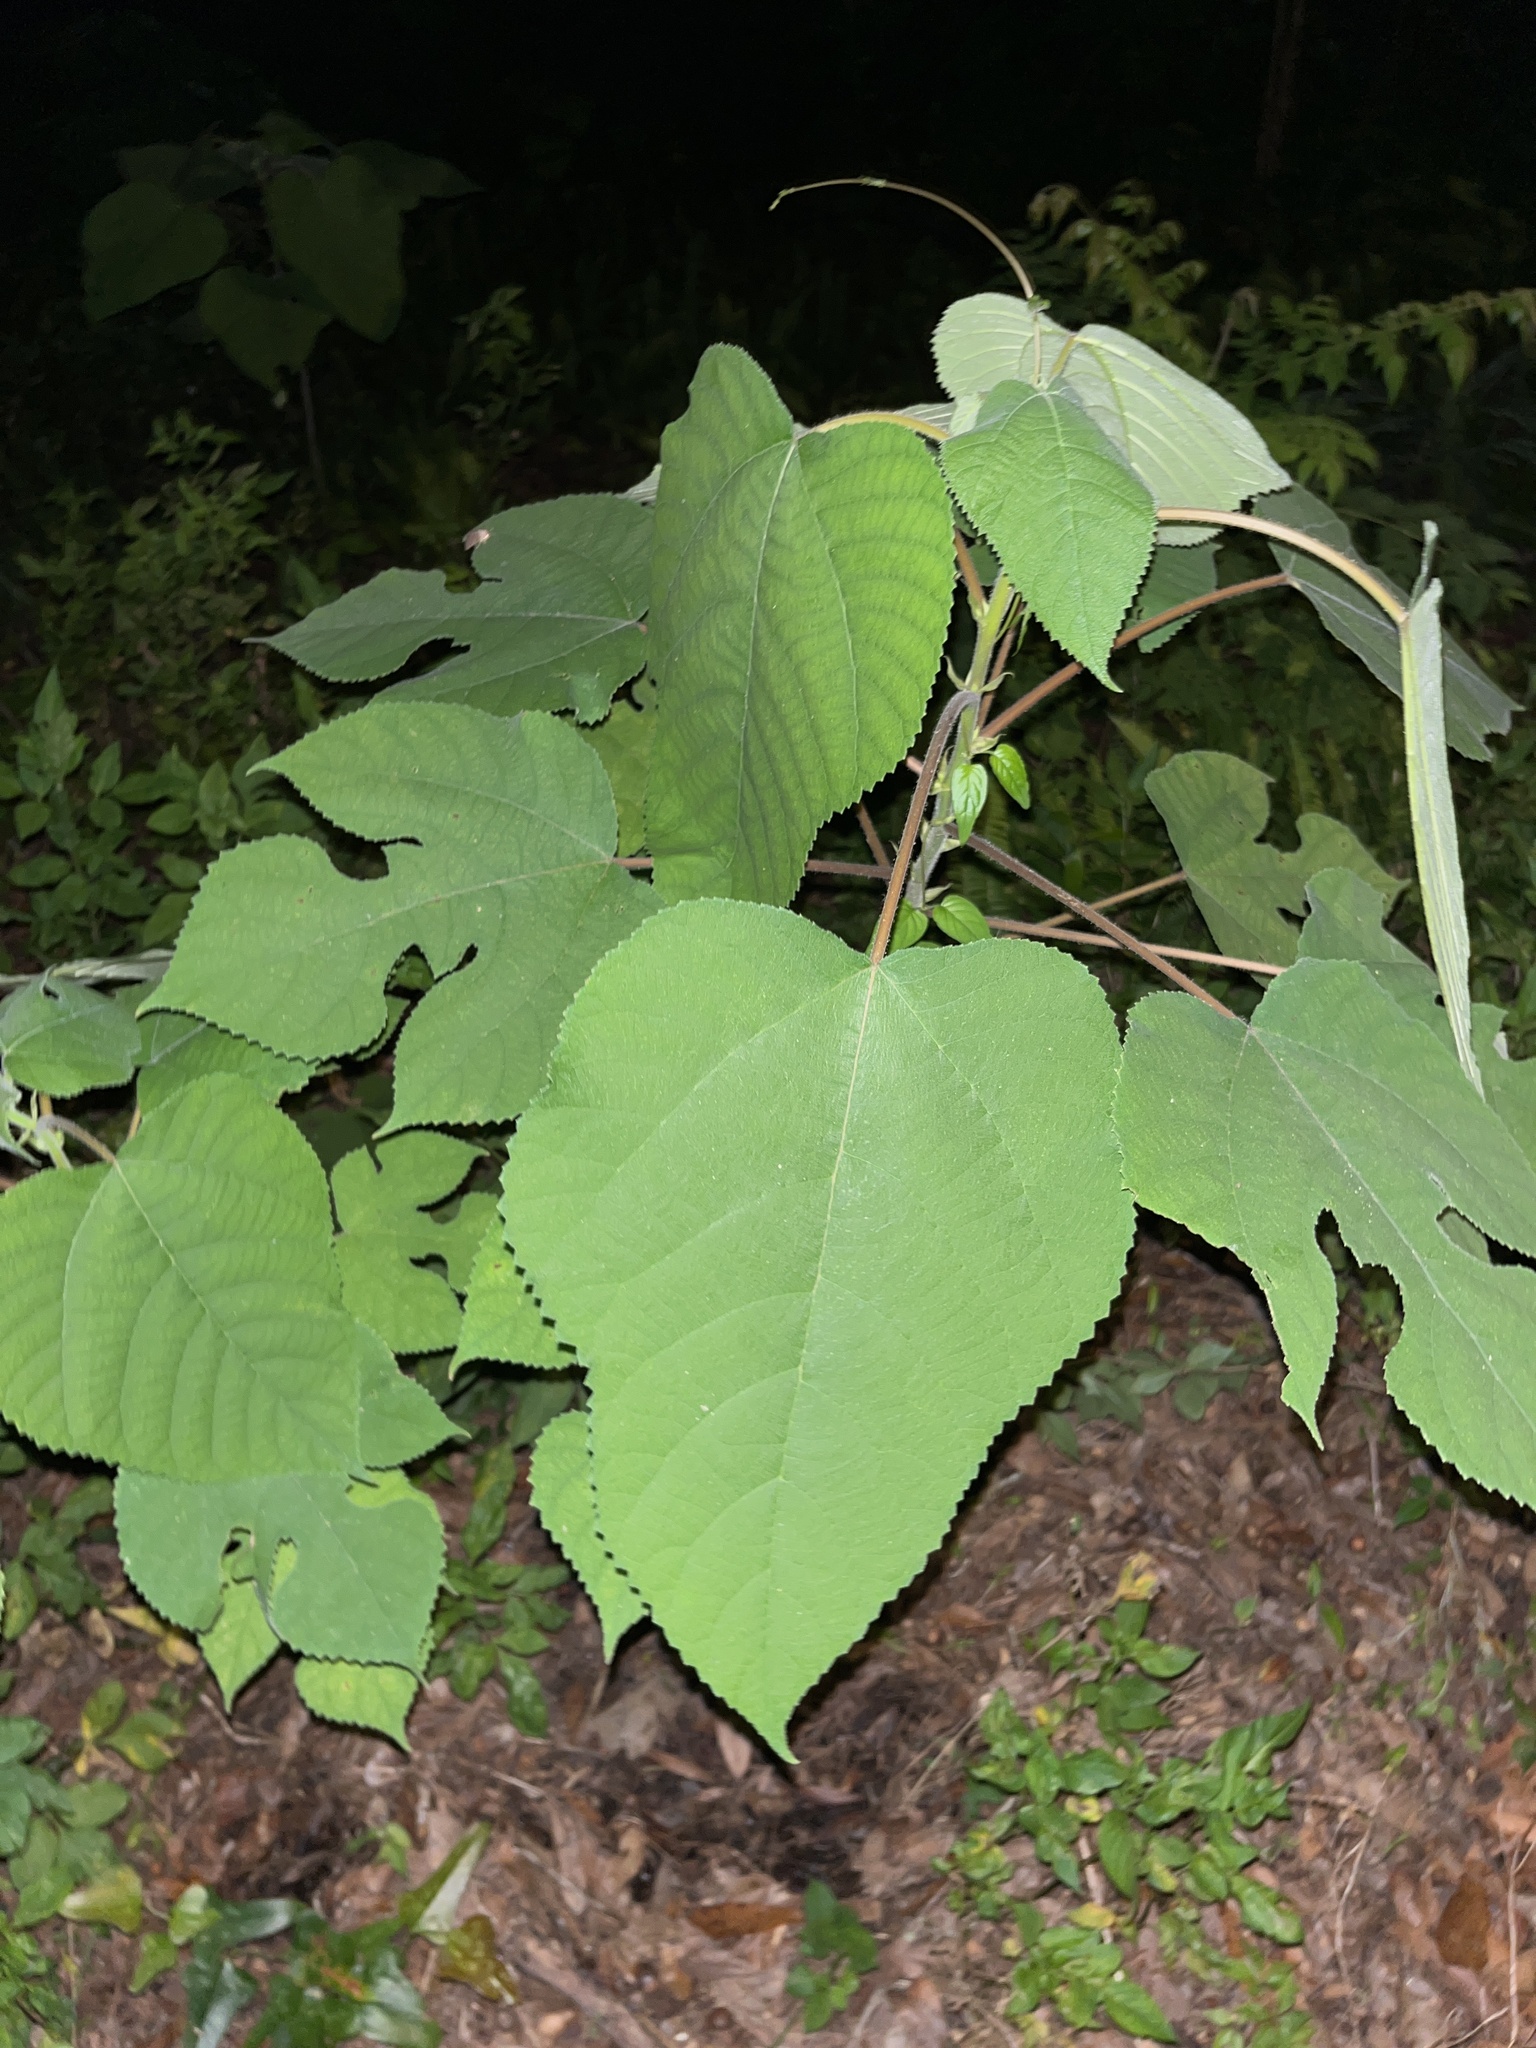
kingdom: Plantae
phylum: Tracheophyta
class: Magnoliopsida
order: Rosales
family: Moraceae
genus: Broussonetia
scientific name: Broussonetia papyrifera
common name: Paper mulberry
